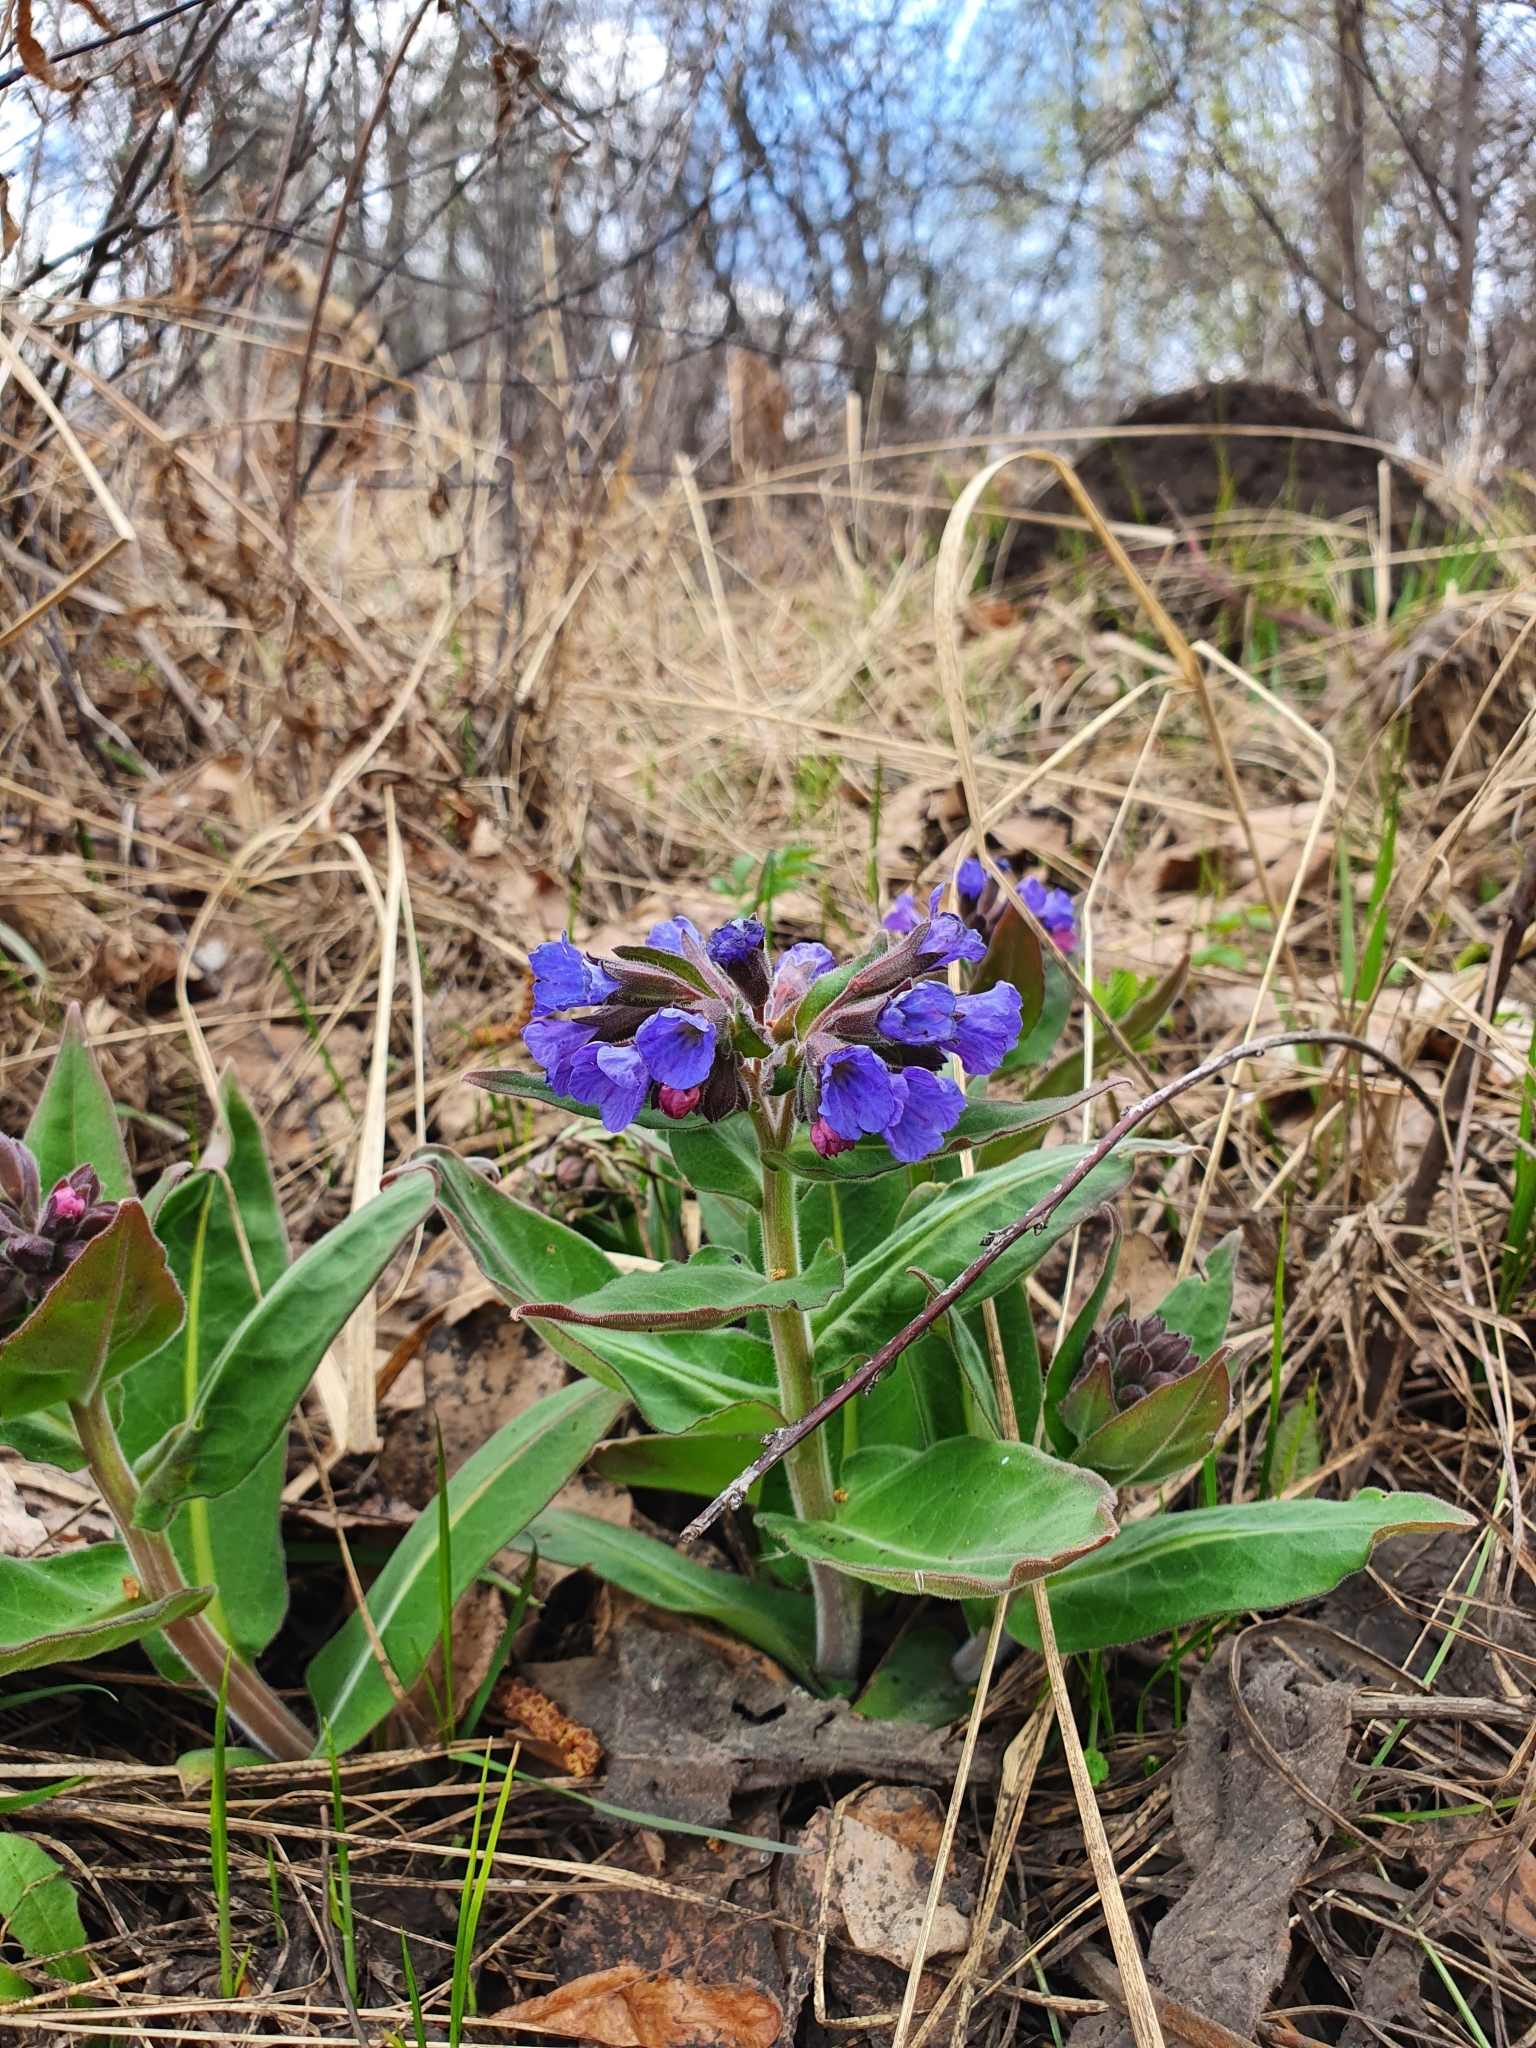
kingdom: Plantae
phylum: Tracheophyta
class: Magnoliopsida
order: Boraginales
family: Boraginaceae
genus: Pulmonaria
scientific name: Pulmonaria mollis
